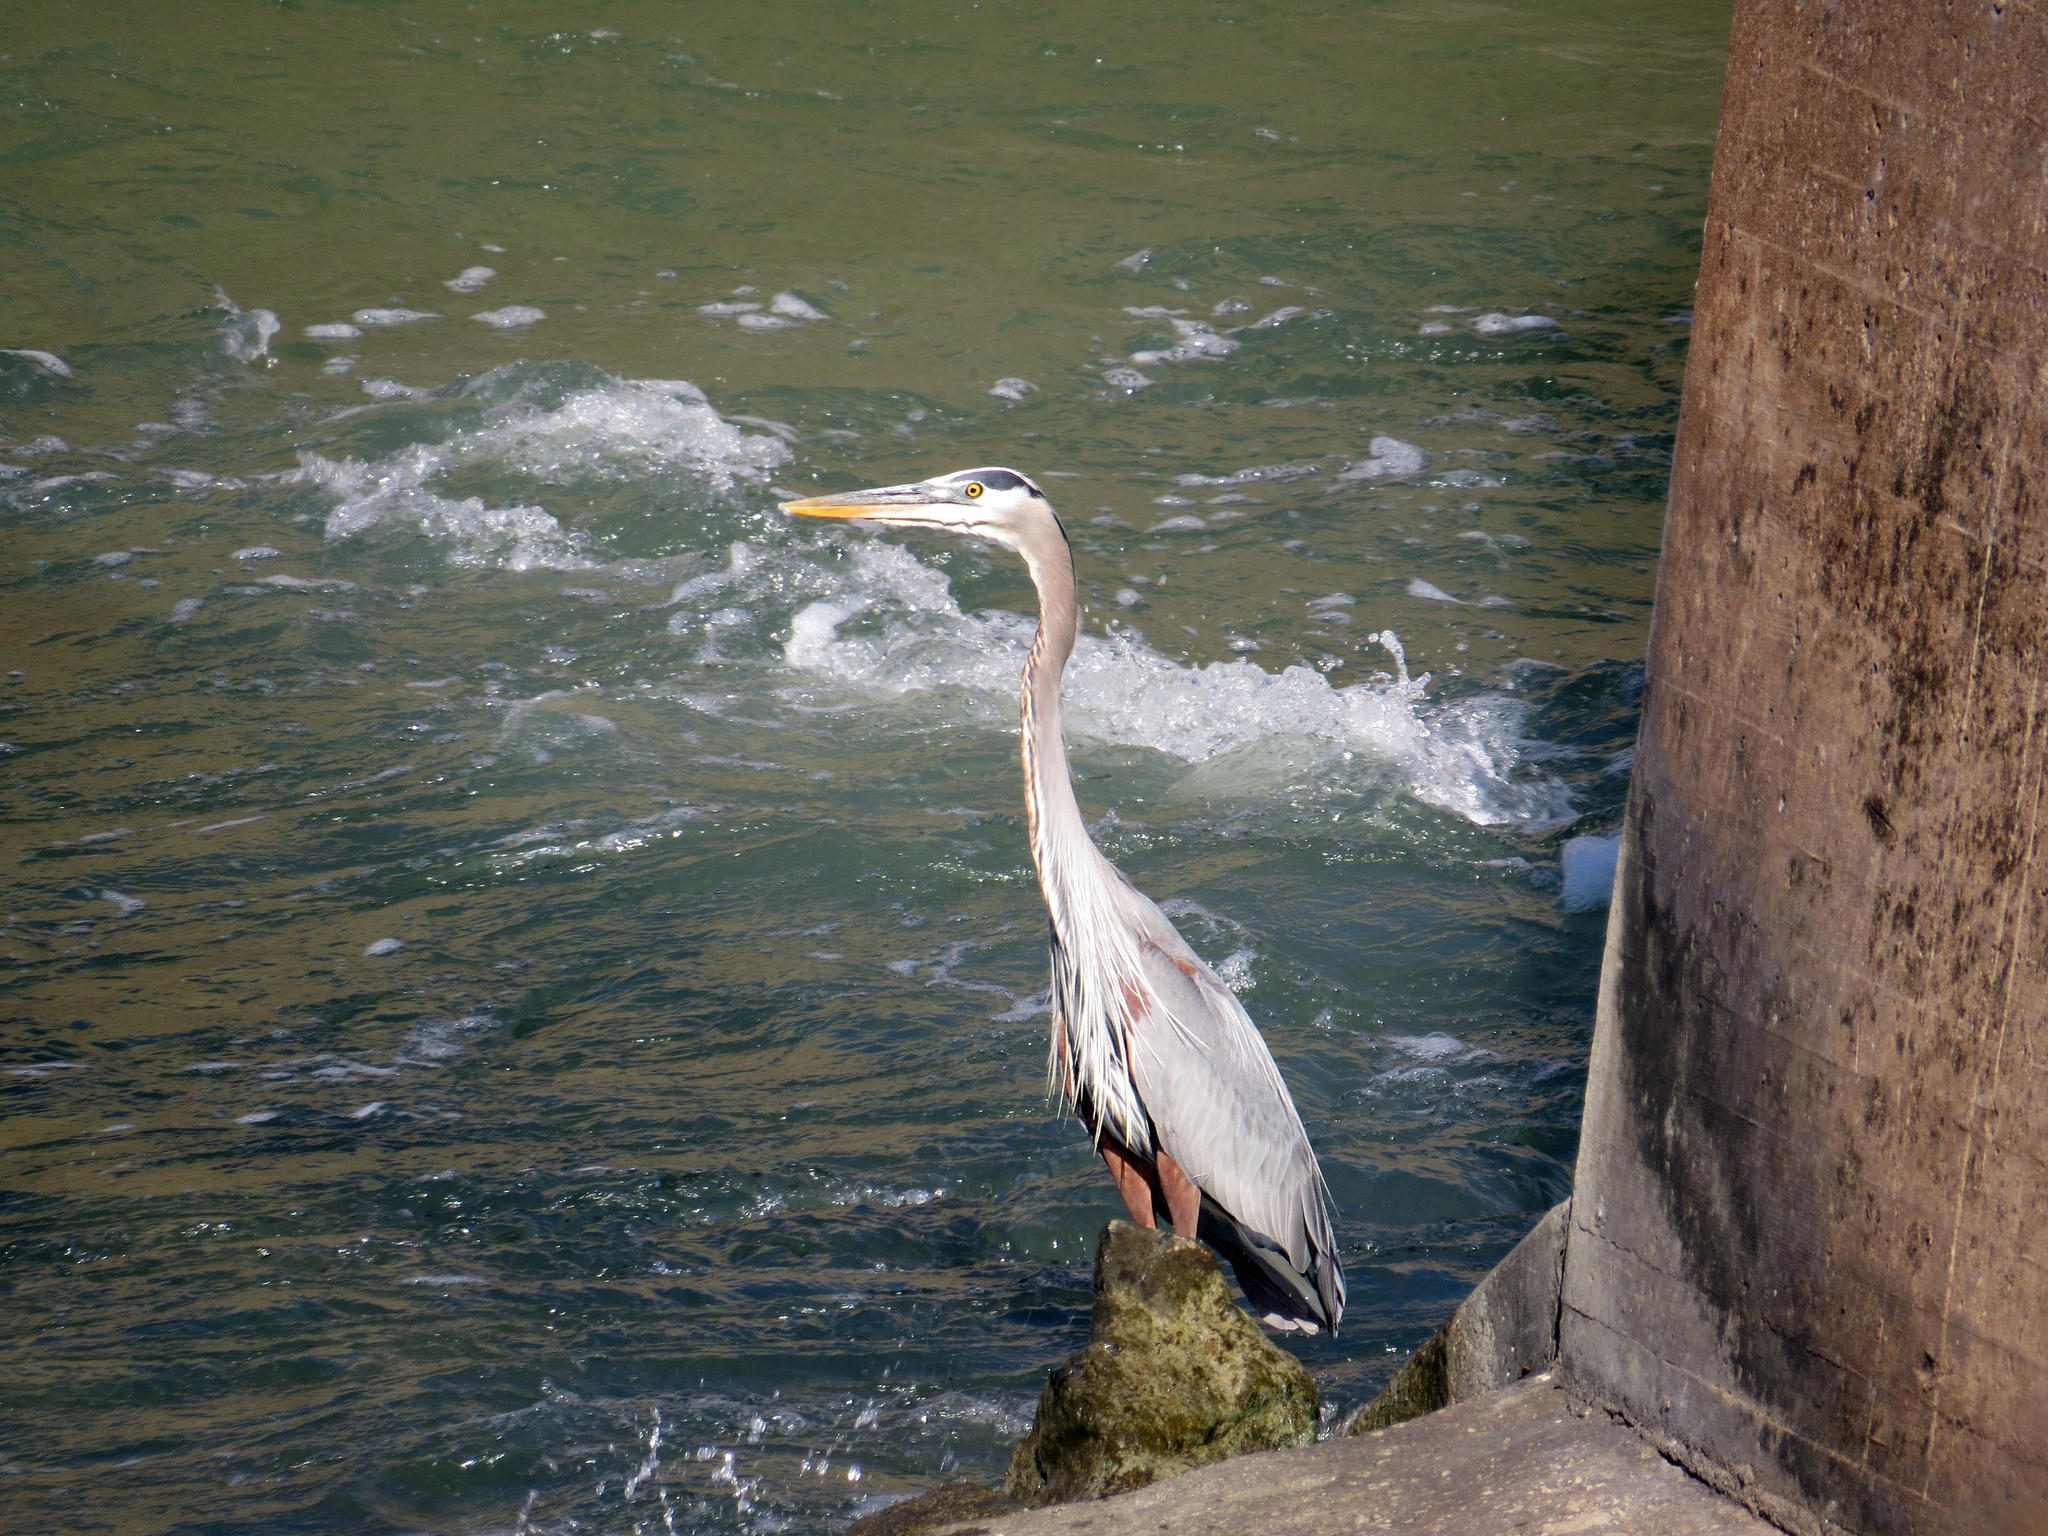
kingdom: Animalia
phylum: Chordata
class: Aves
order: Pelecaniformes
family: Ardeidae
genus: Ardea
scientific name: Ardea herodias
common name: Great blue heron
